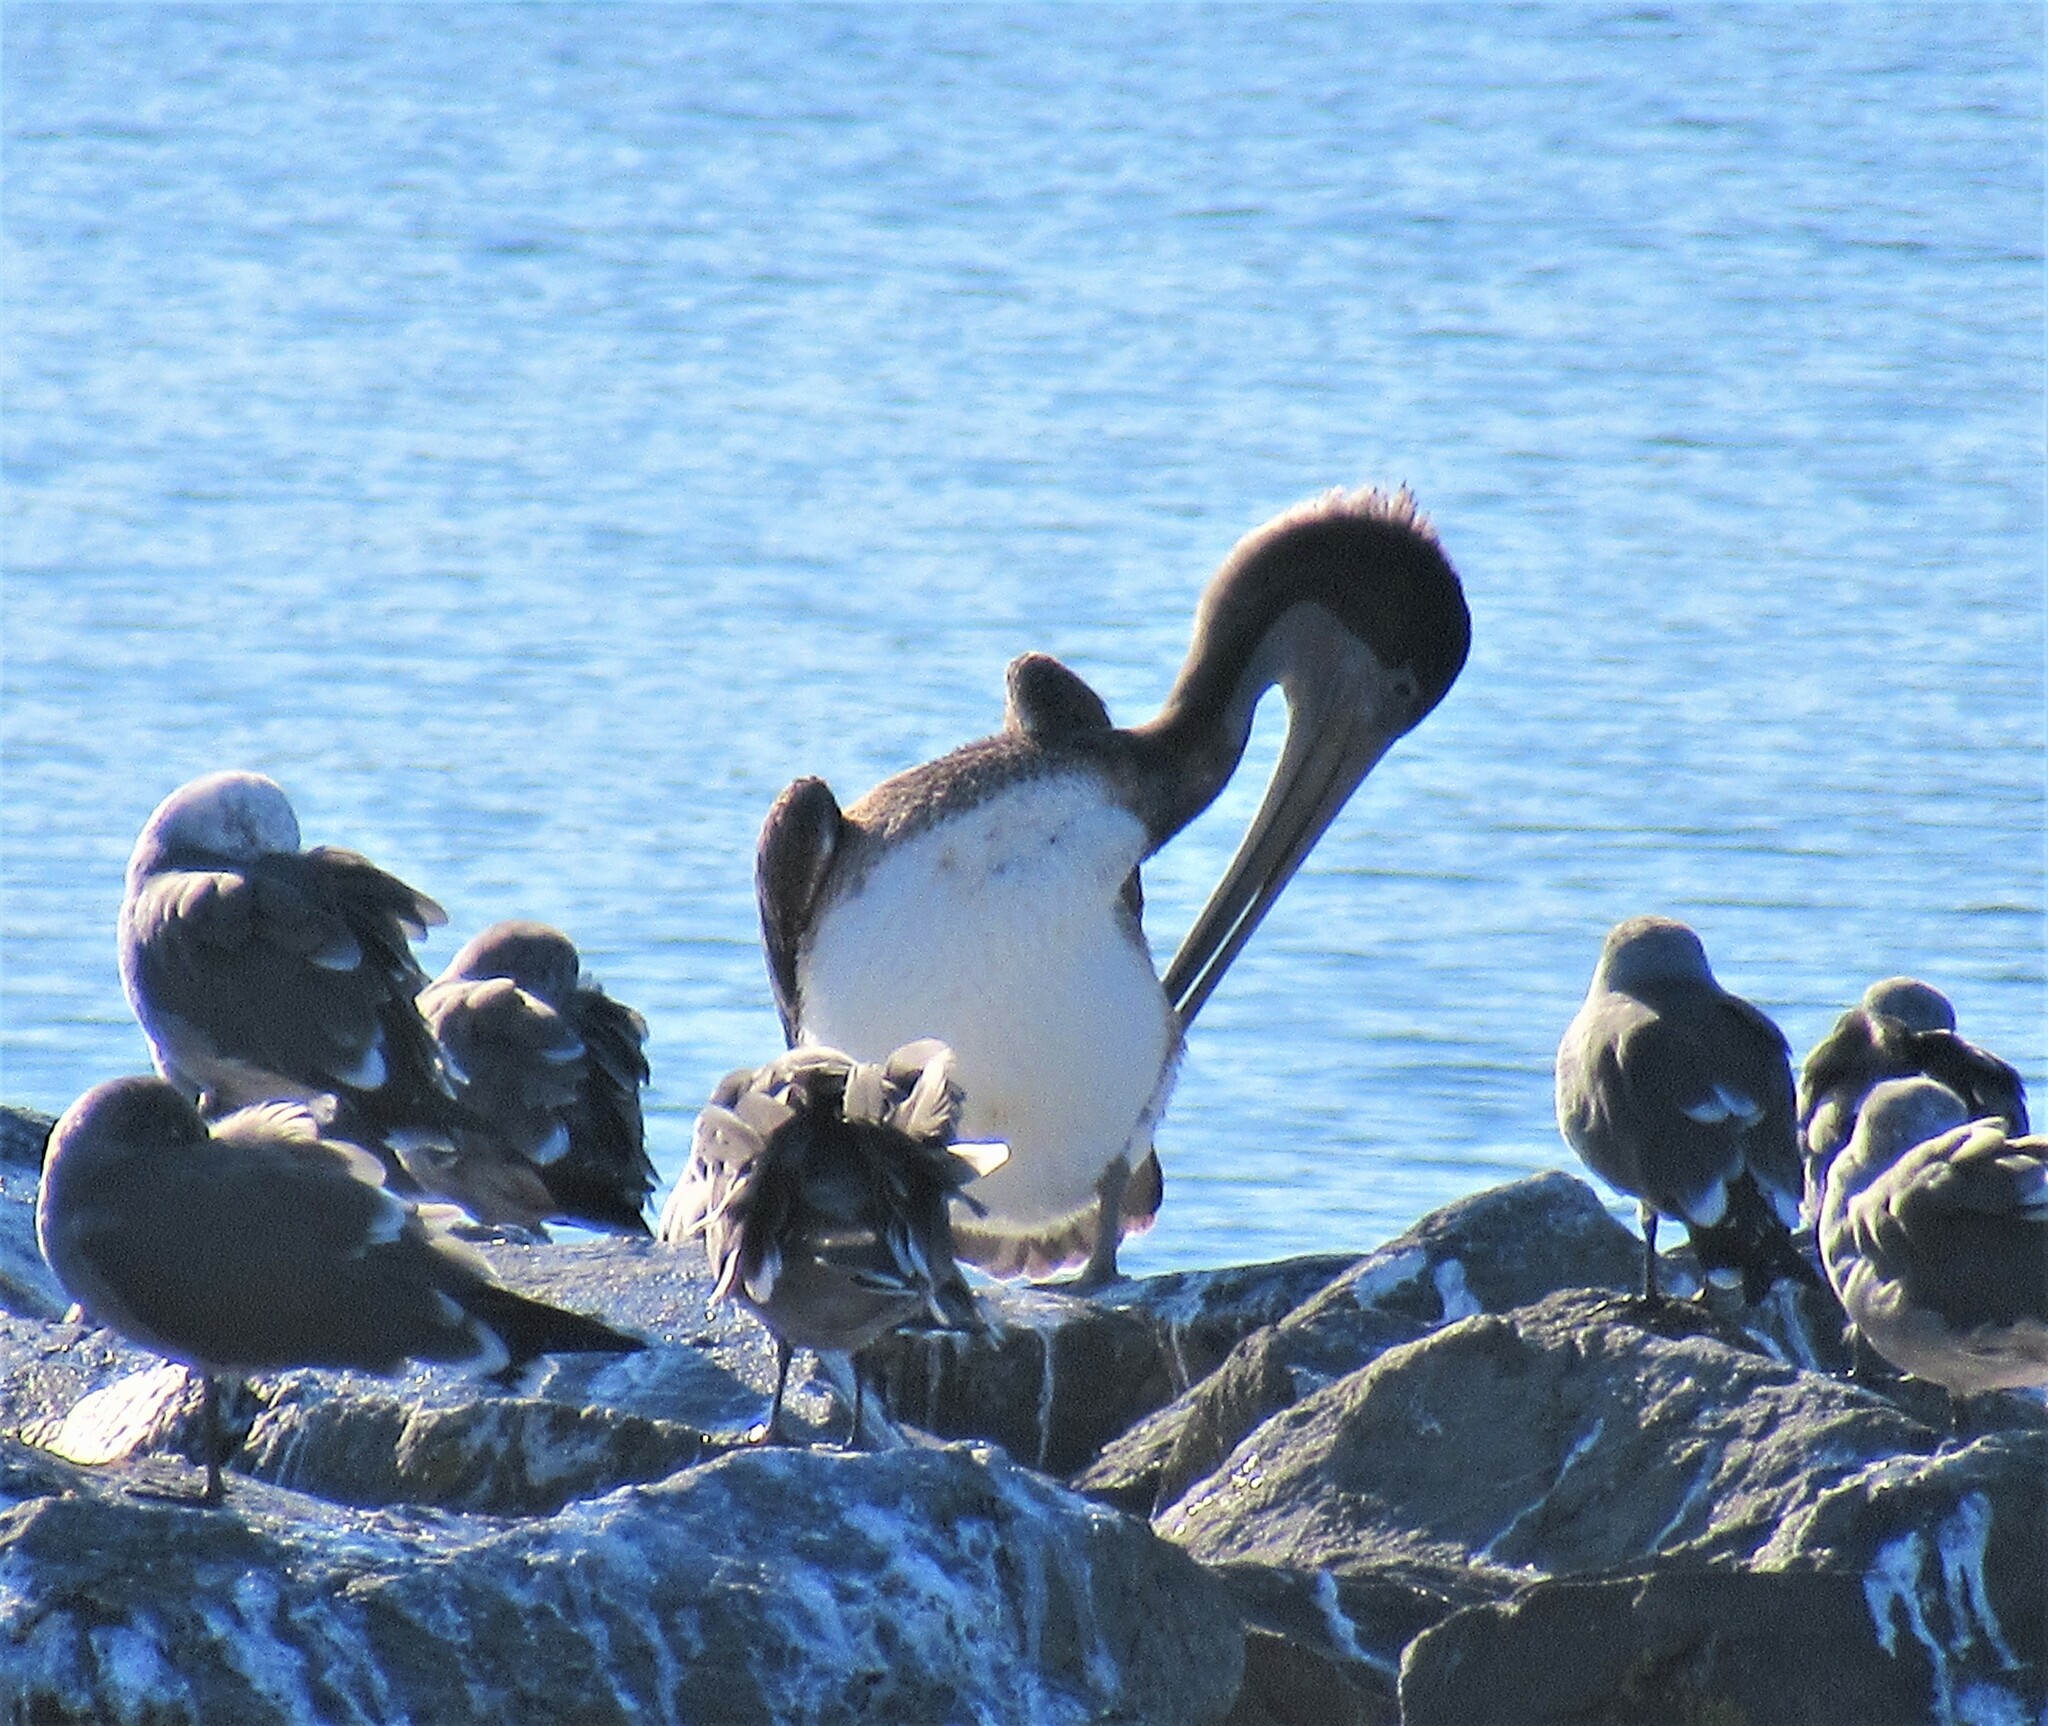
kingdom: Animalia
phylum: Chordata
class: Aves
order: Pelecaniformes
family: Pelecanidae
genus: Pelecanus
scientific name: Pelecanus occidentalis
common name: Brown pelican
